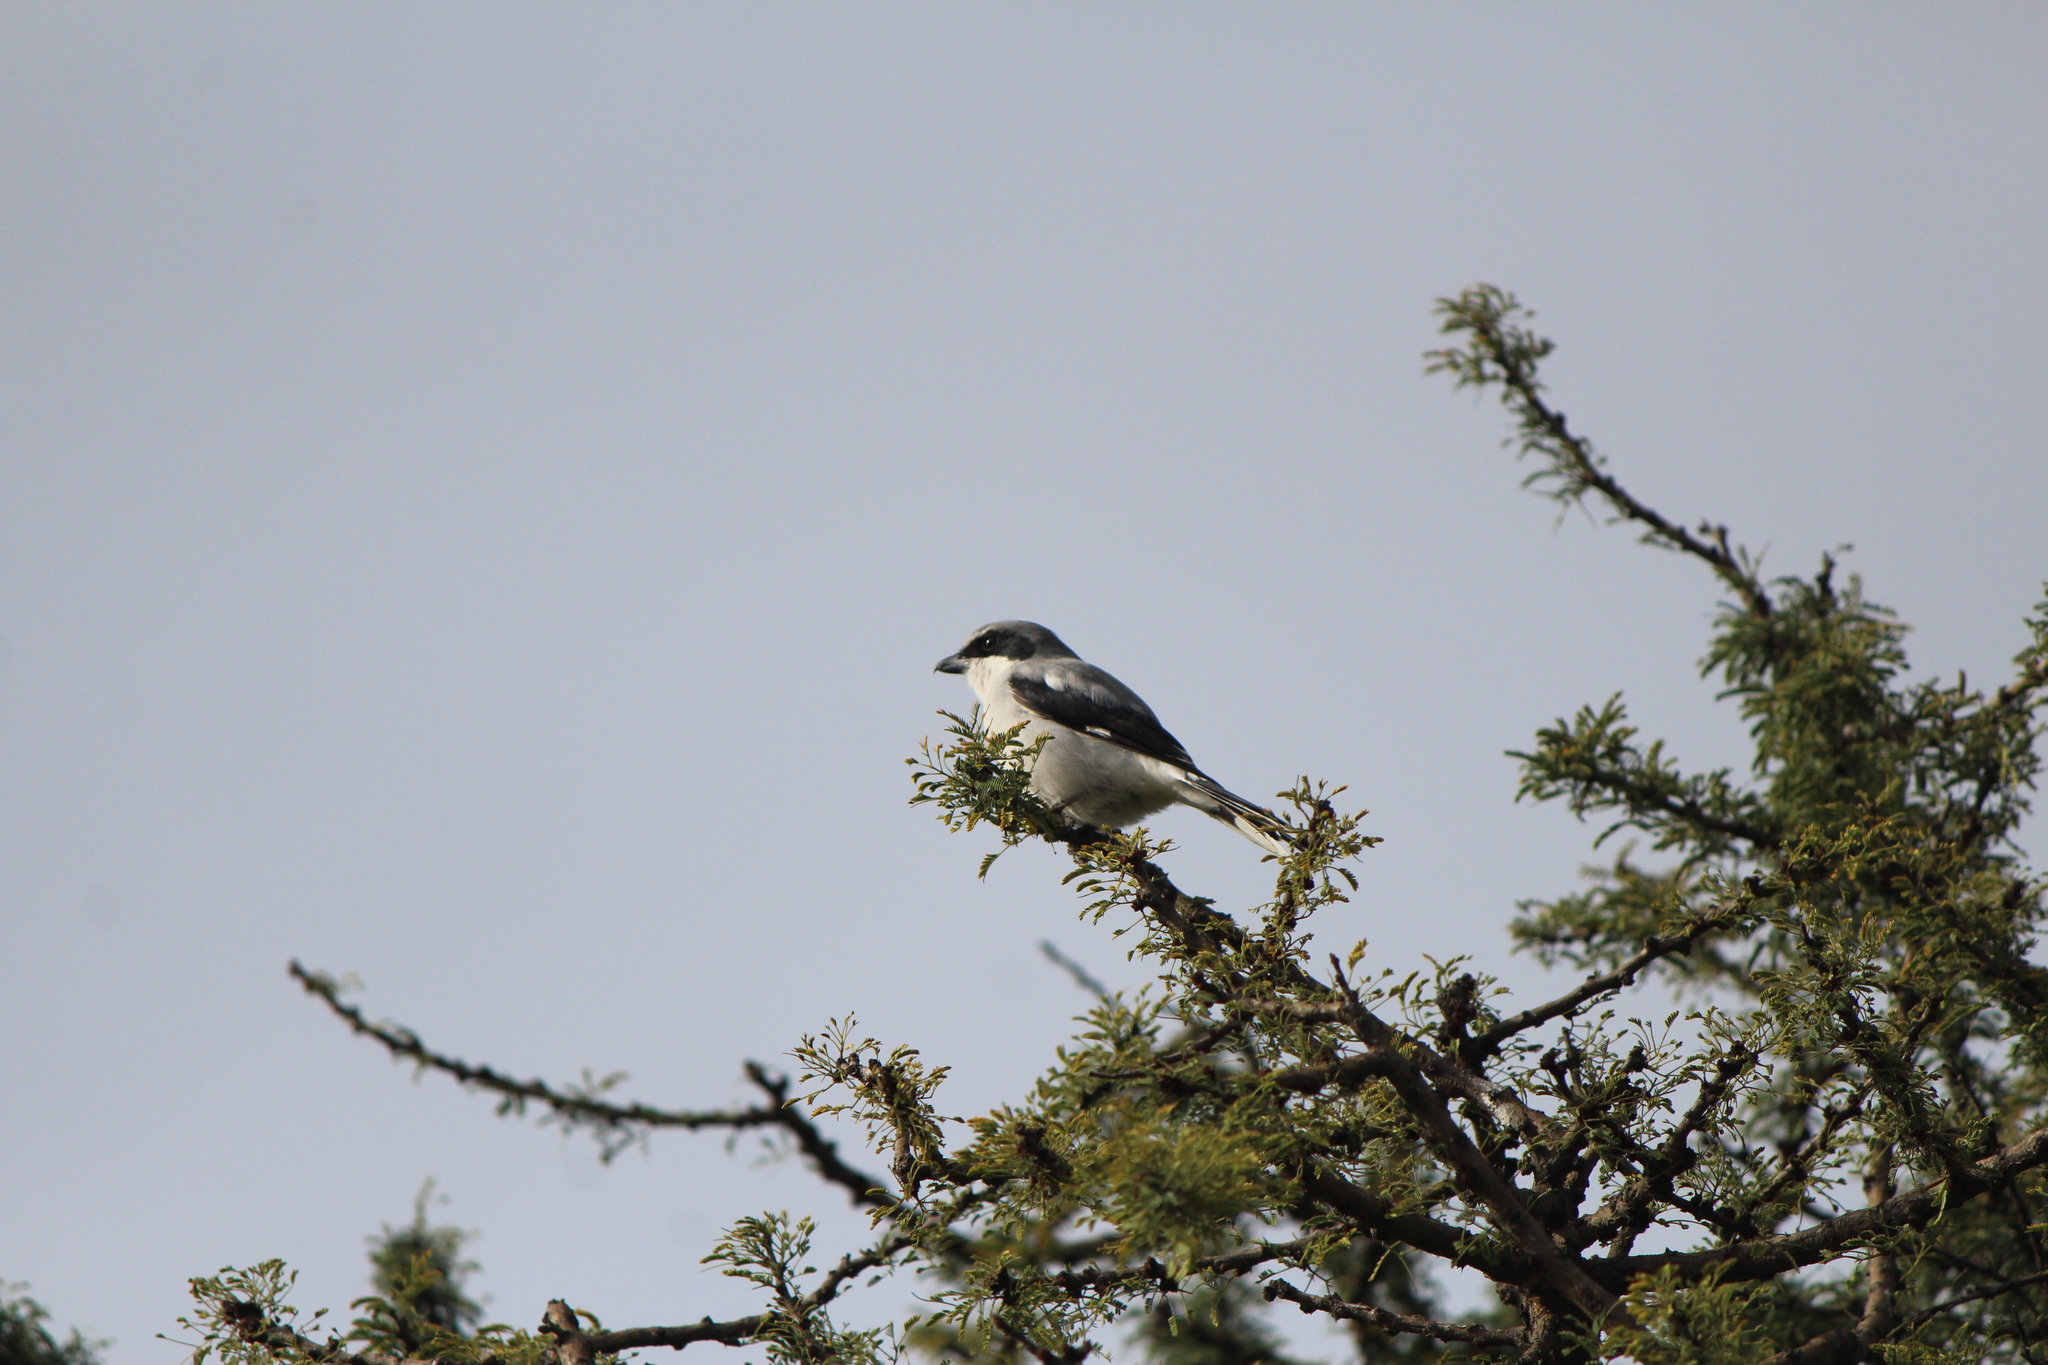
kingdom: Animalia
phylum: Chordata
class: Aves
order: Passeriformes
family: Laniidae
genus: Lanius
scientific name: Lanius ludovicianus
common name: Loggerhead shrike
